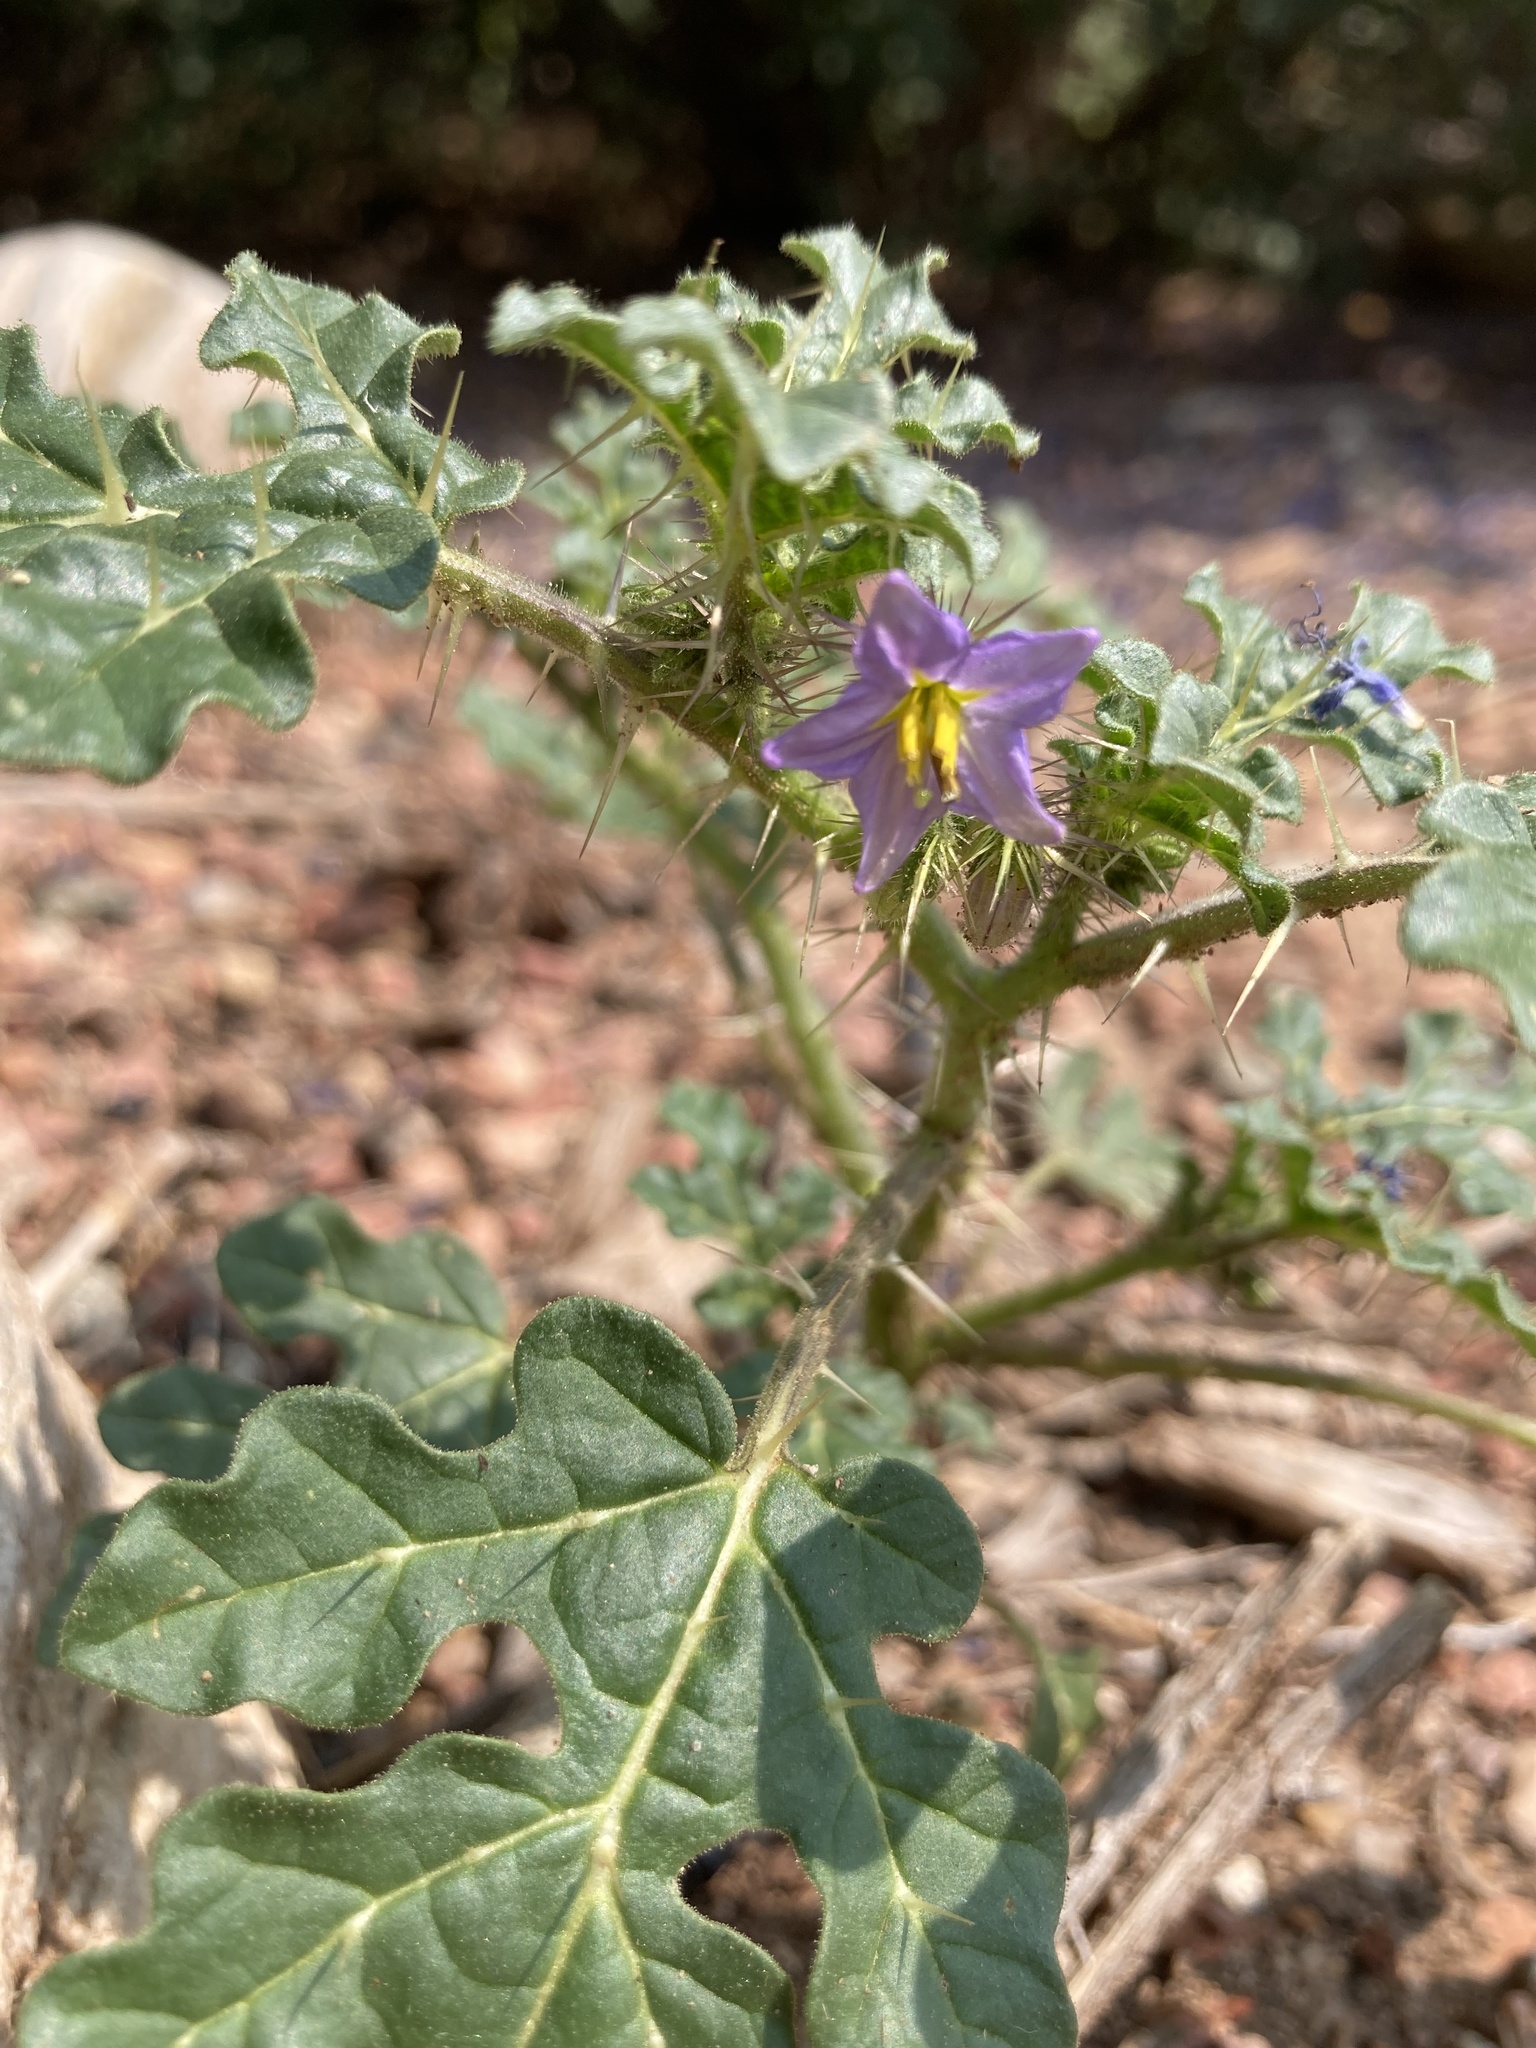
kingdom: Plantae
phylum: Tracheophyta
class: Magnoliopsida
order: Solanales
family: Solanaceae
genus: Solanum
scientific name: Solanum heterodoxum
